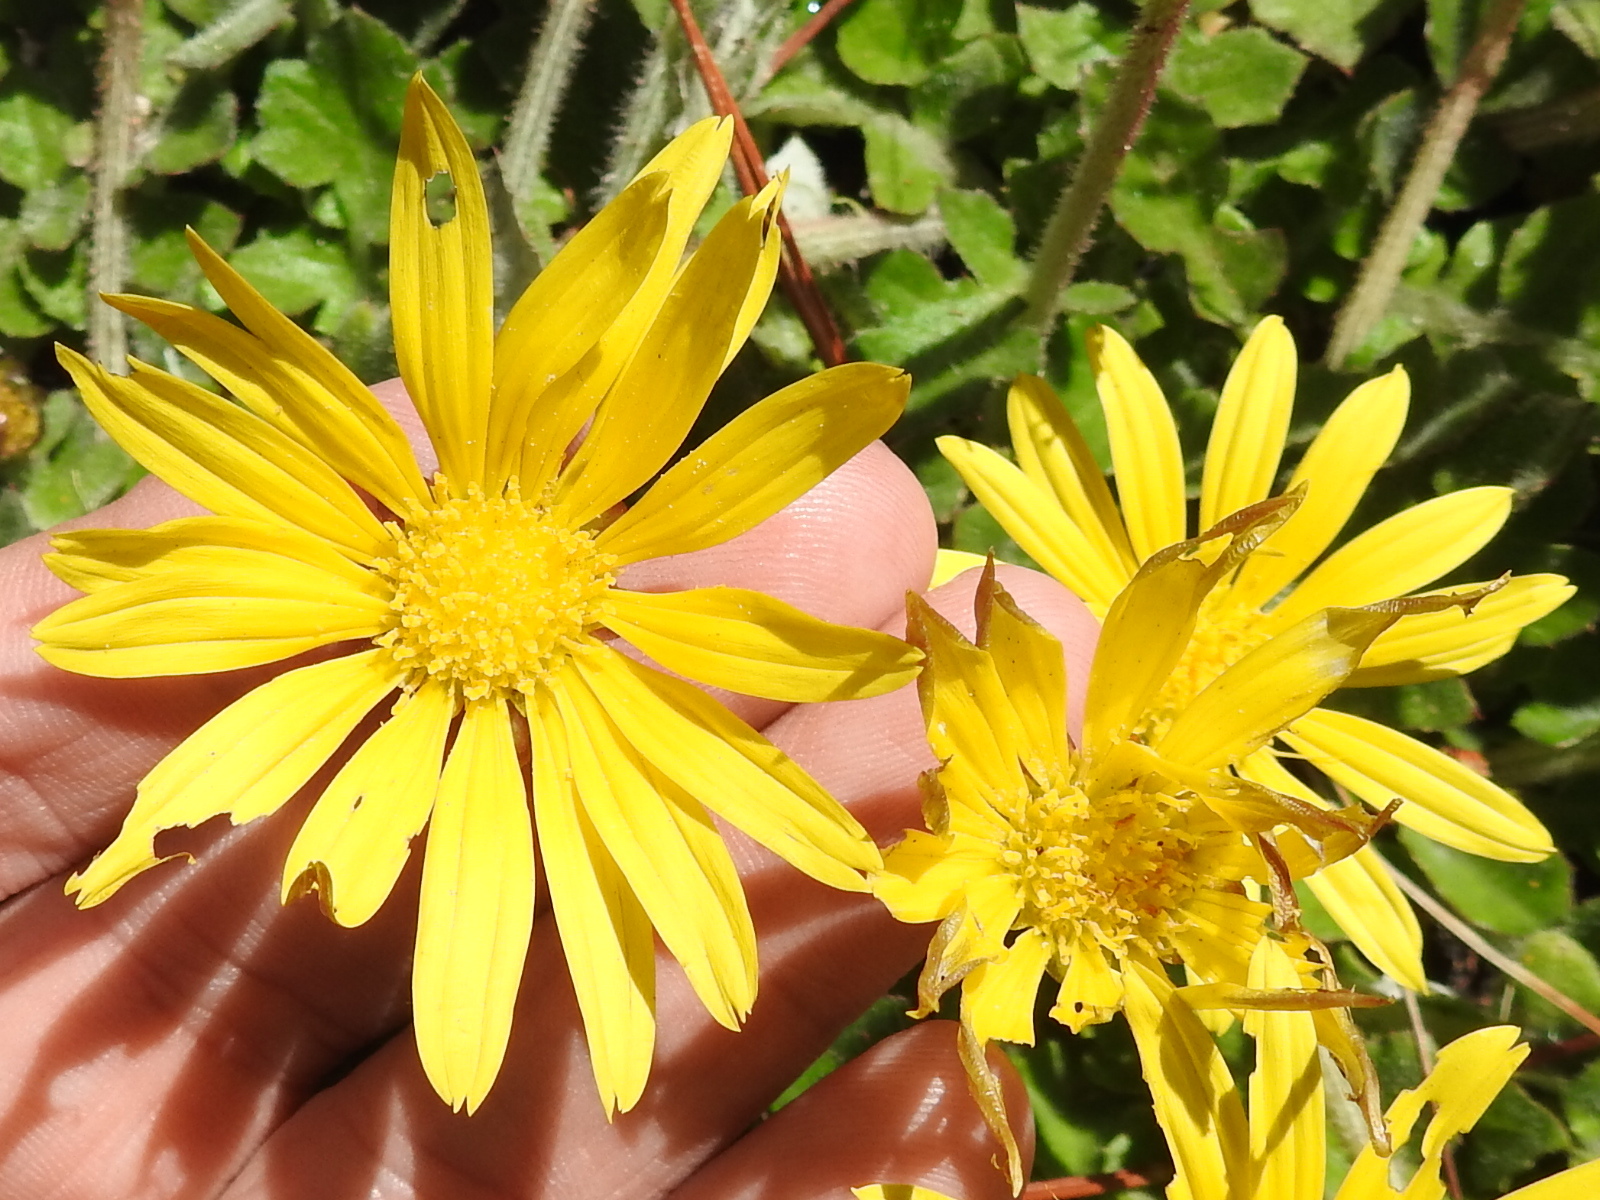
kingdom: Plantae
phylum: Tracheophyta
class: Magnoliopsida
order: Asterales
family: Asteraceae
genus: Arctotheca
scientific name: Arctotheca prostrata
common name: Capeweed
